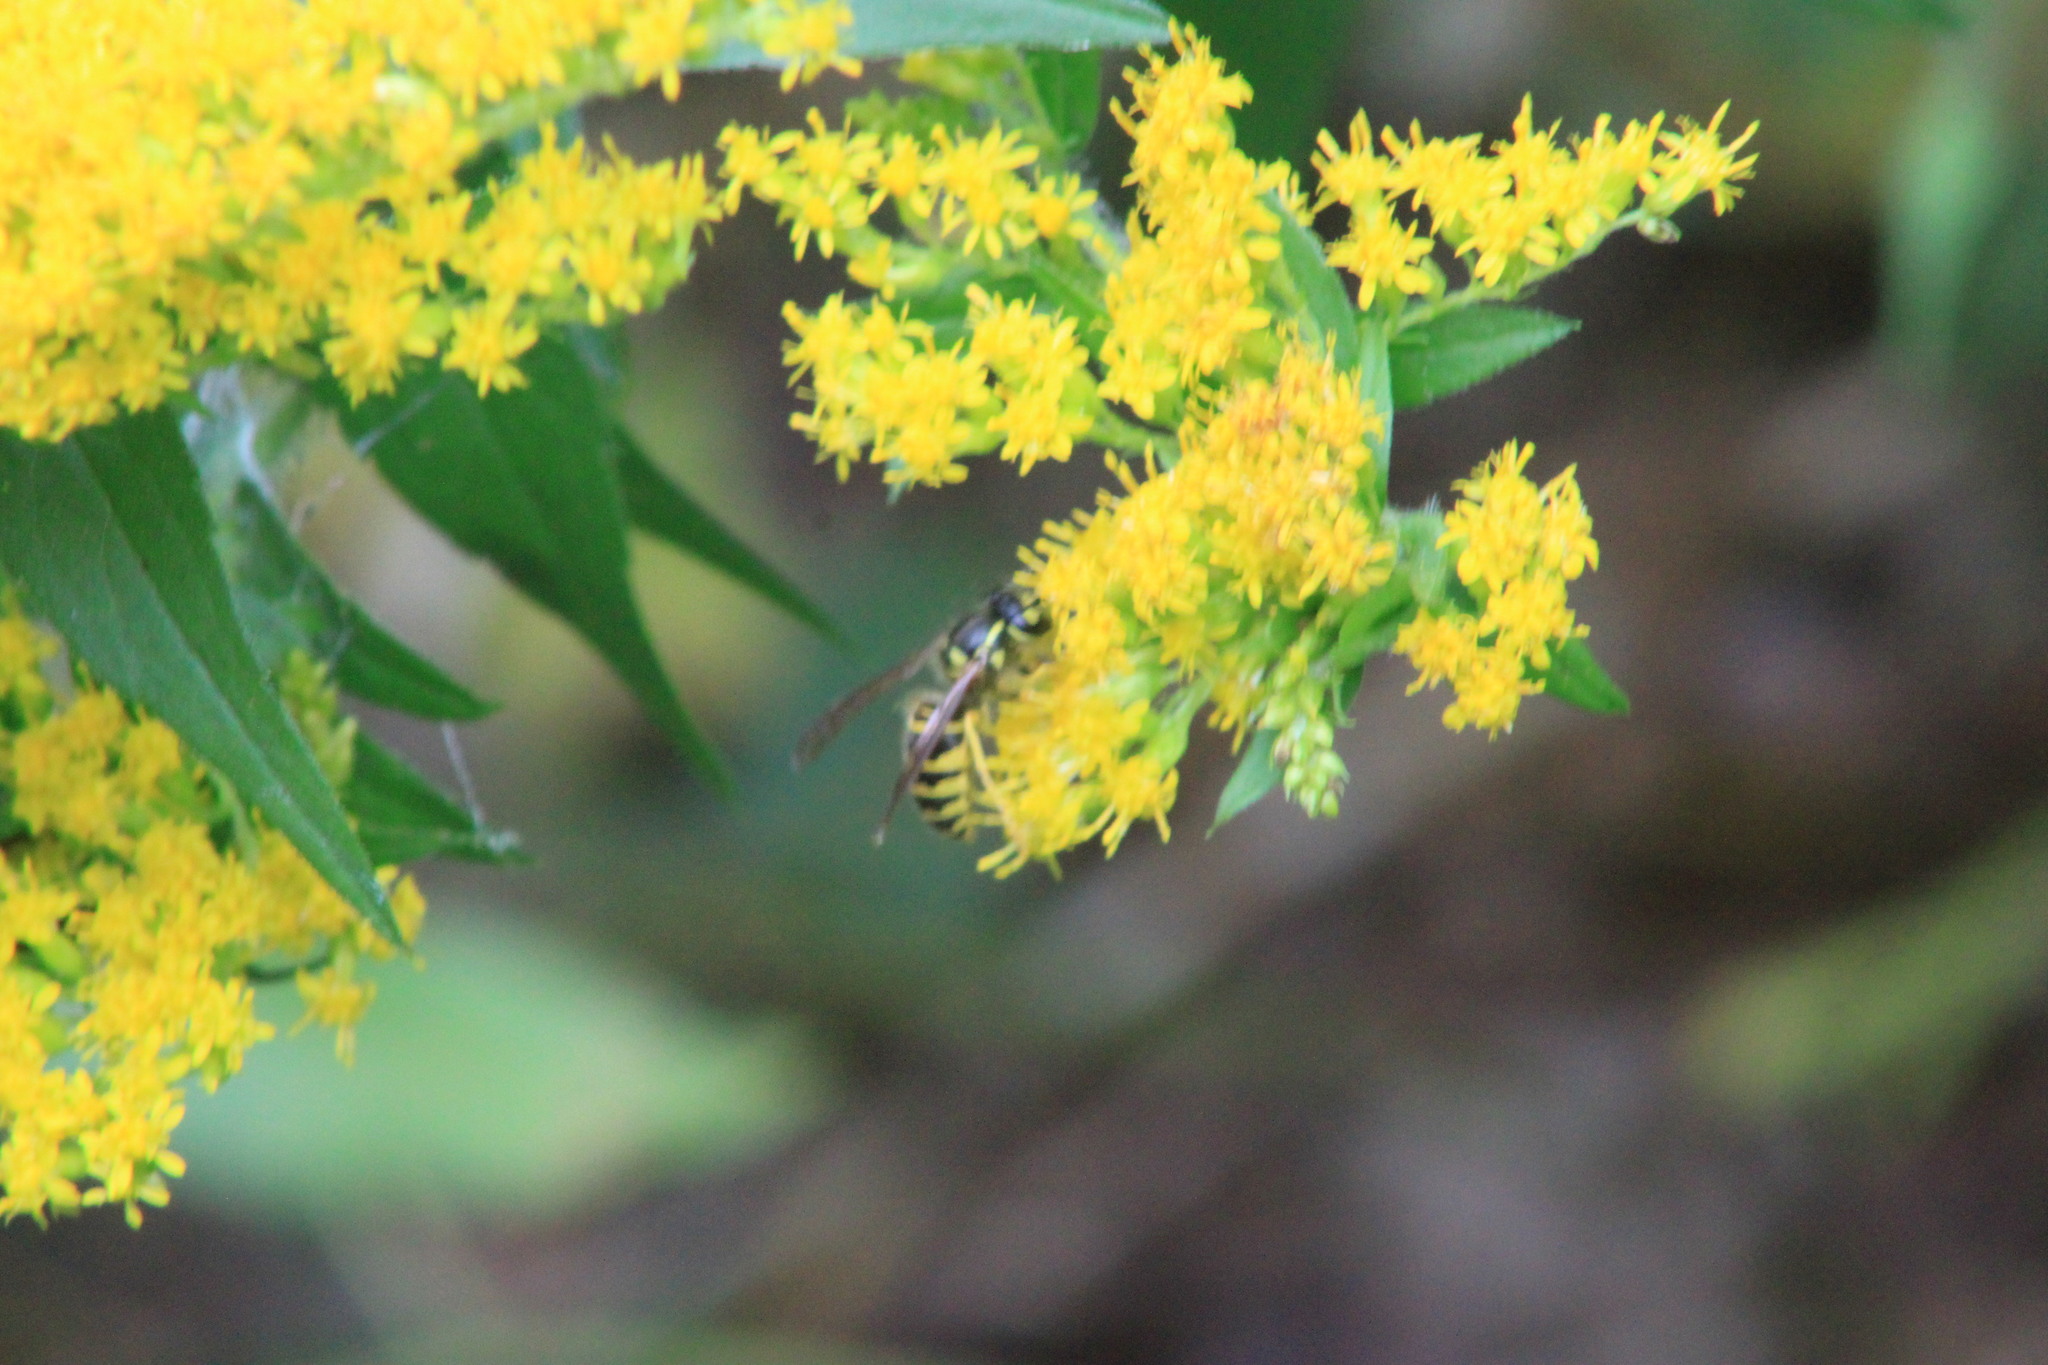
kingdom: Animalia
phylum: Arthropoda
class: Insecta
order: Hymenoptera
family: Vespidae
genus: Vespula
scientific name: Vespula maculifrons
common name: Eastern yellowjacket
